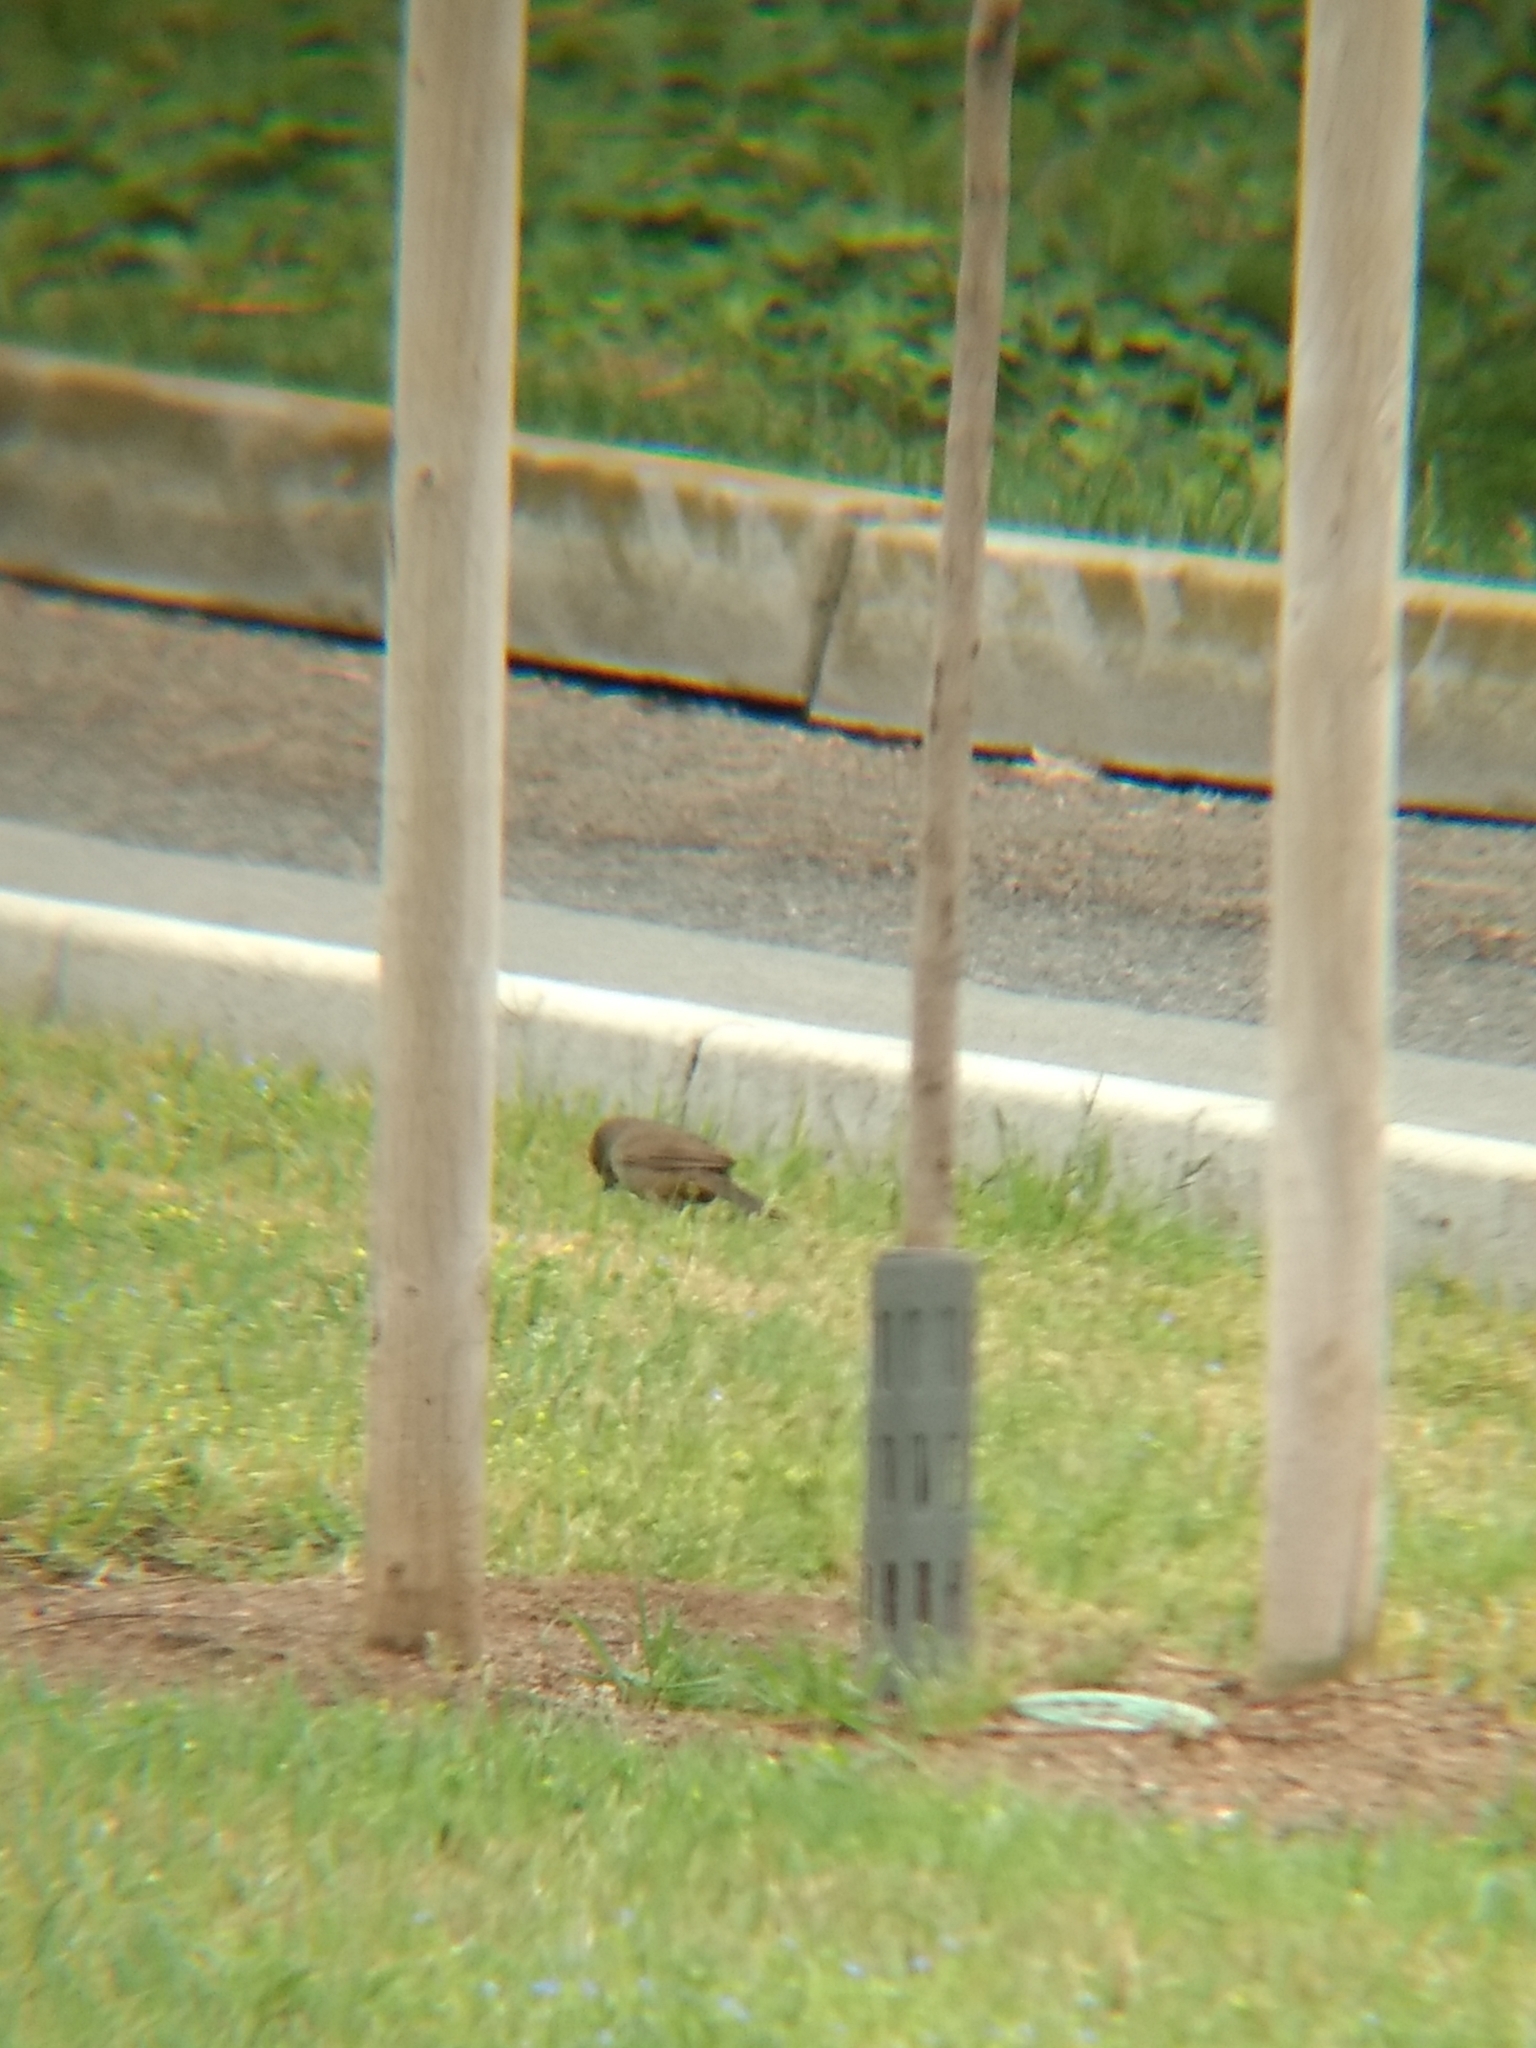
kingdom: Animalia
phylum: Chordata
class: Aves
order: Passeriformes
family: Passerellidae
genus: Melozone
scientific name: Melozone crissalis
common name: California towhee
